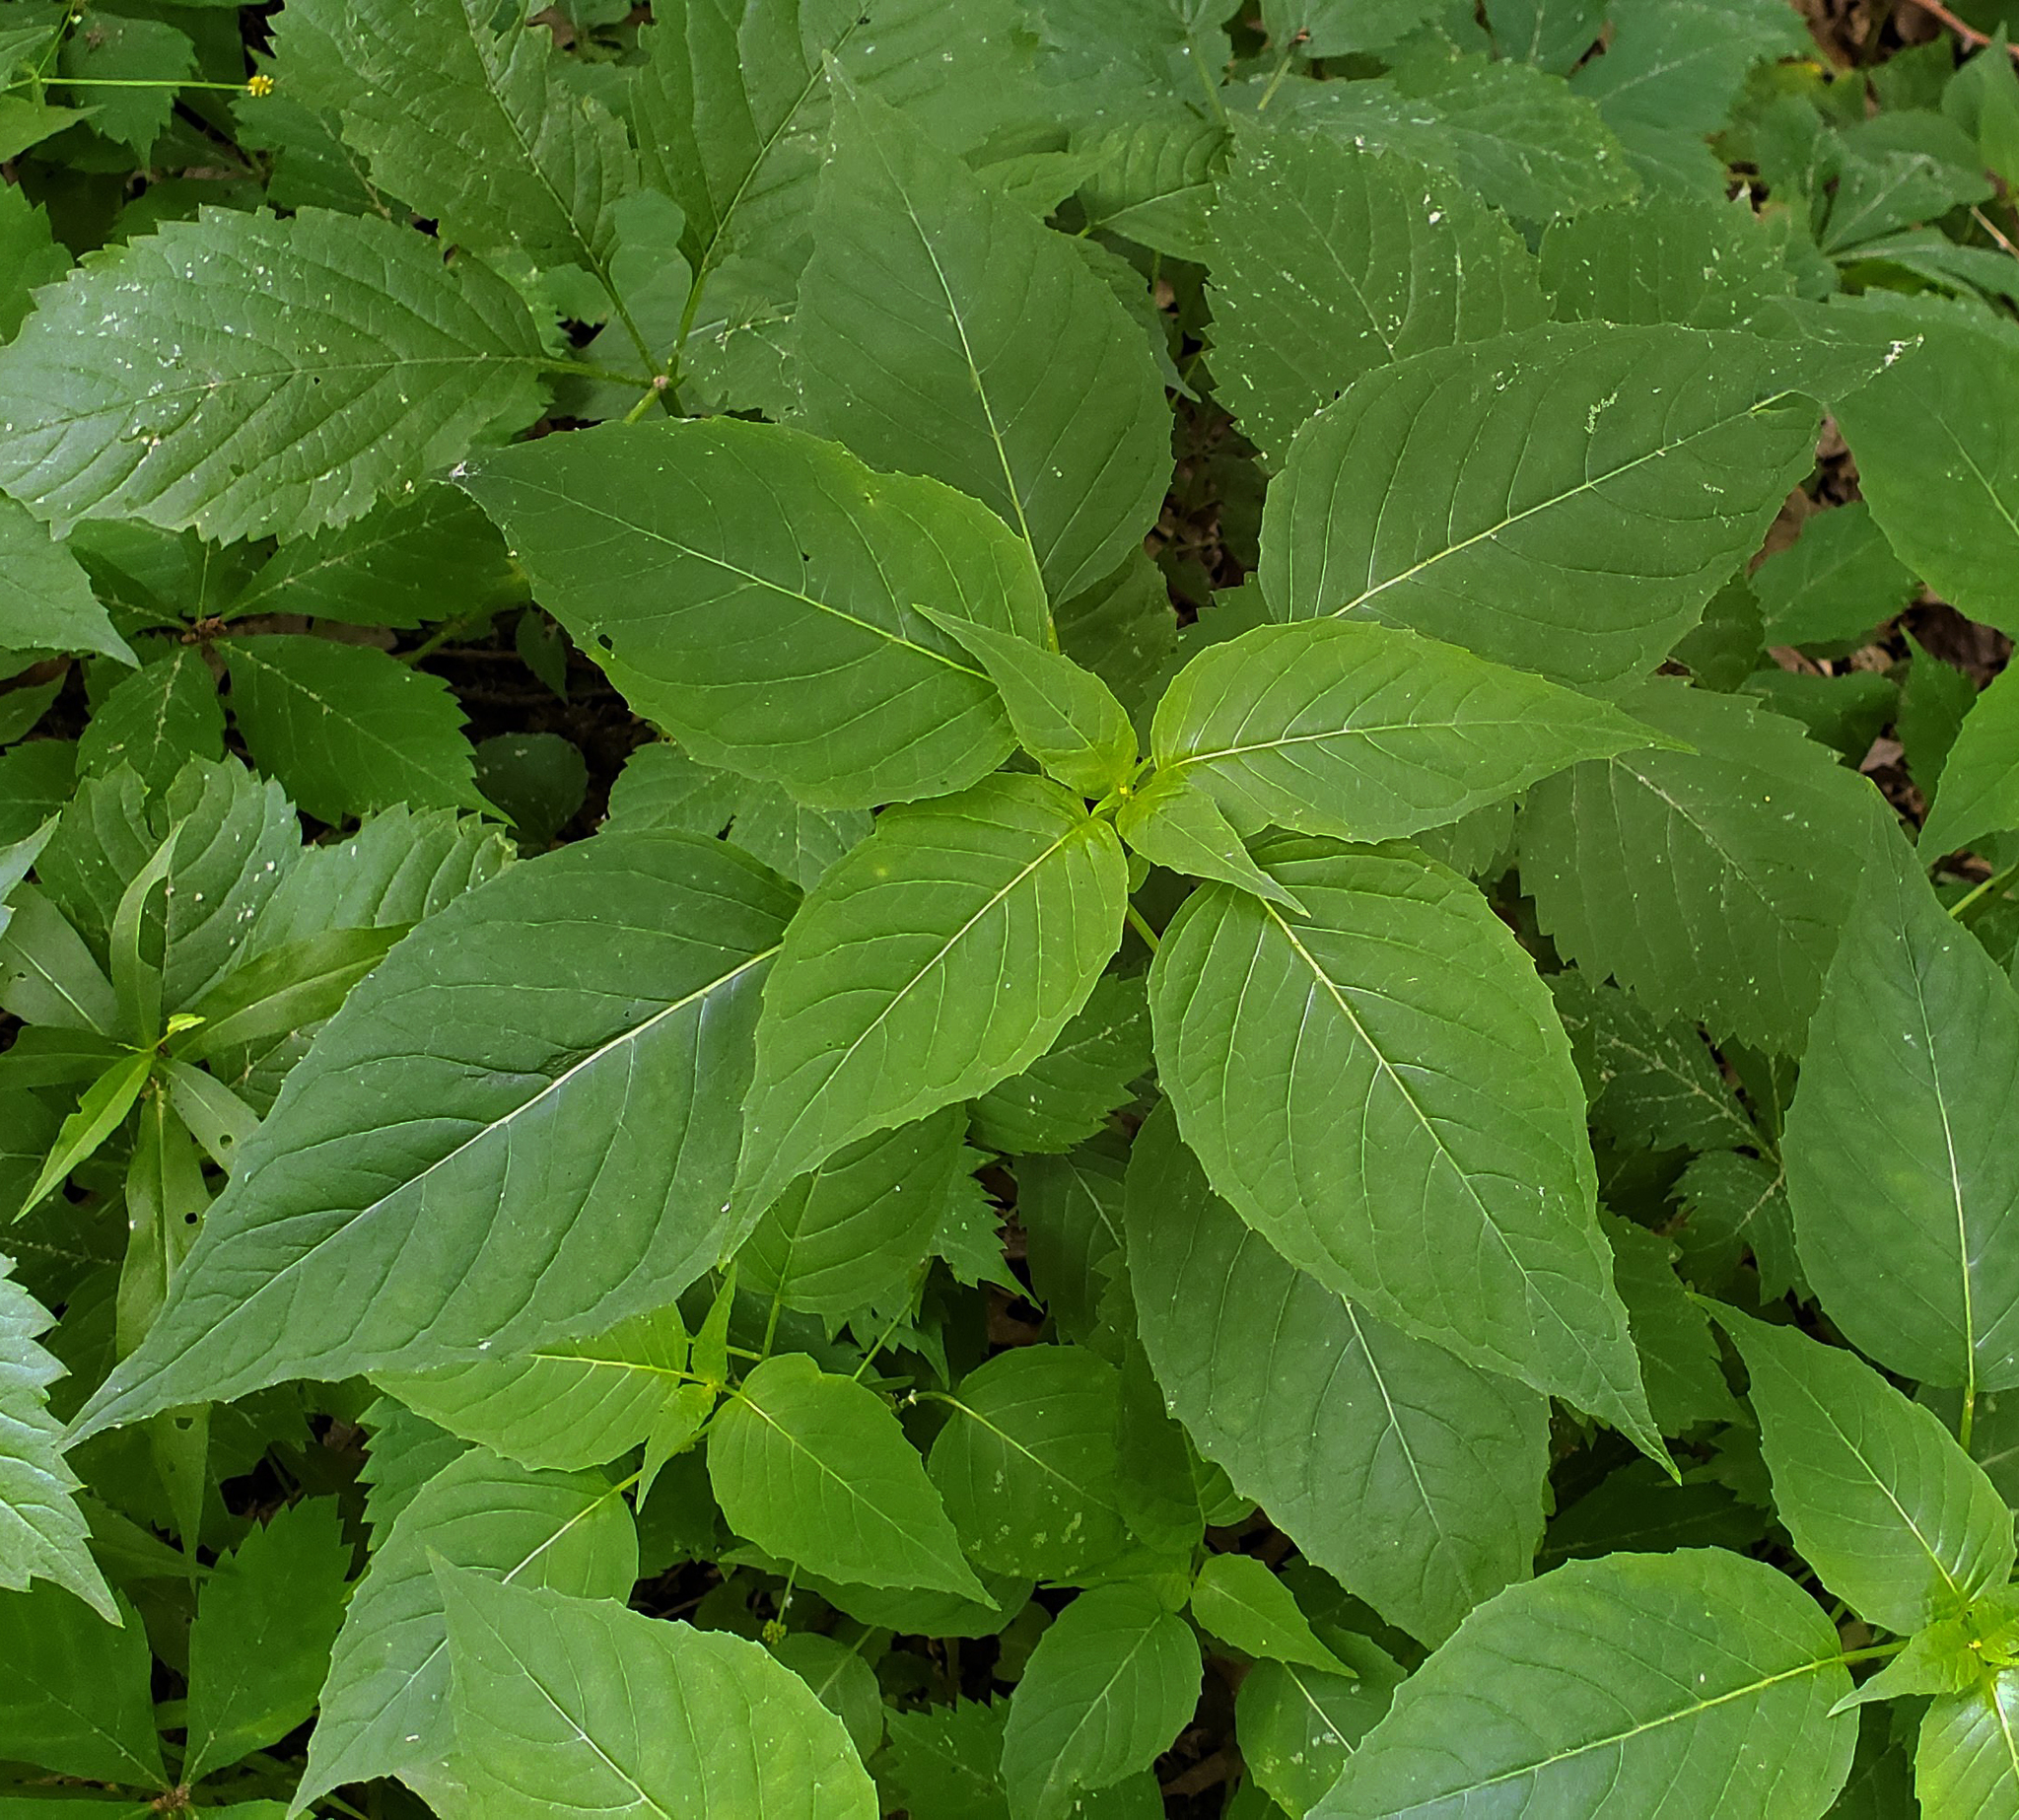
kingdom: Plantae
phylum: Tracheophyta
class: Magnoliopsida
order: Myrtales
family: Onagraceae
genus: Circaea
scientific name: Circaea canadensis
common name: Broad-leaved enchanter's nightshade
